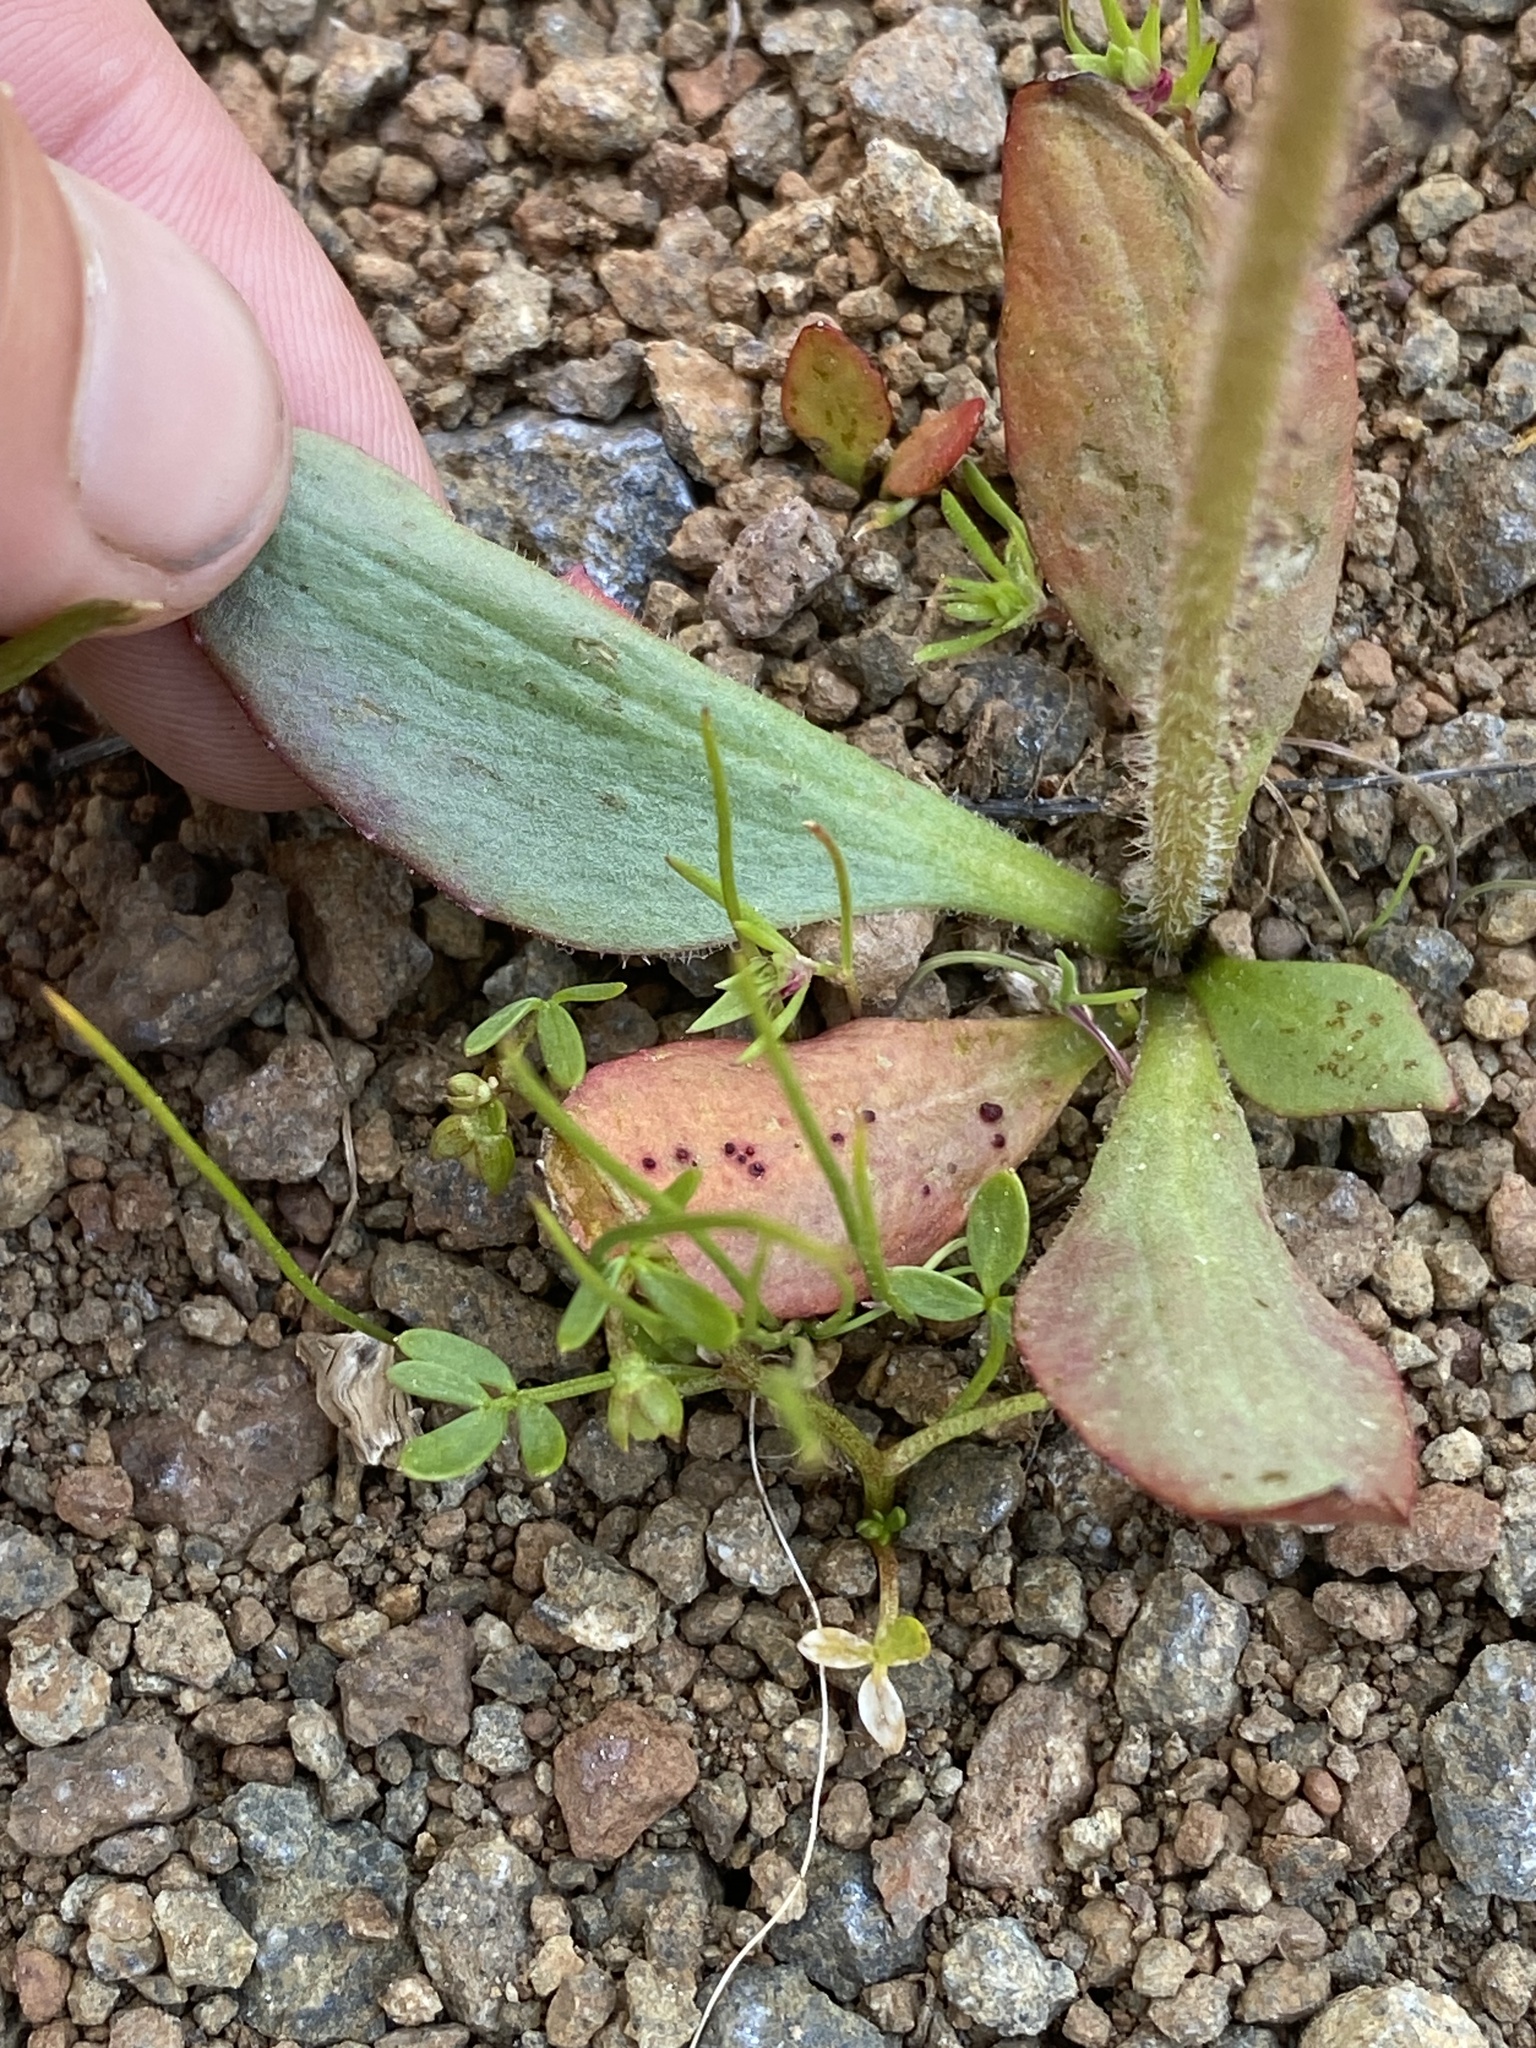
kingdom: Plantae
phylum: Tracheophyta
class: Magnoliopsida
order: Saxifragales
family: Saxifragaceae
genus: Micranthes
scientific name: Micranthes integrifolia
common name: Wholeleaf saxifrage
